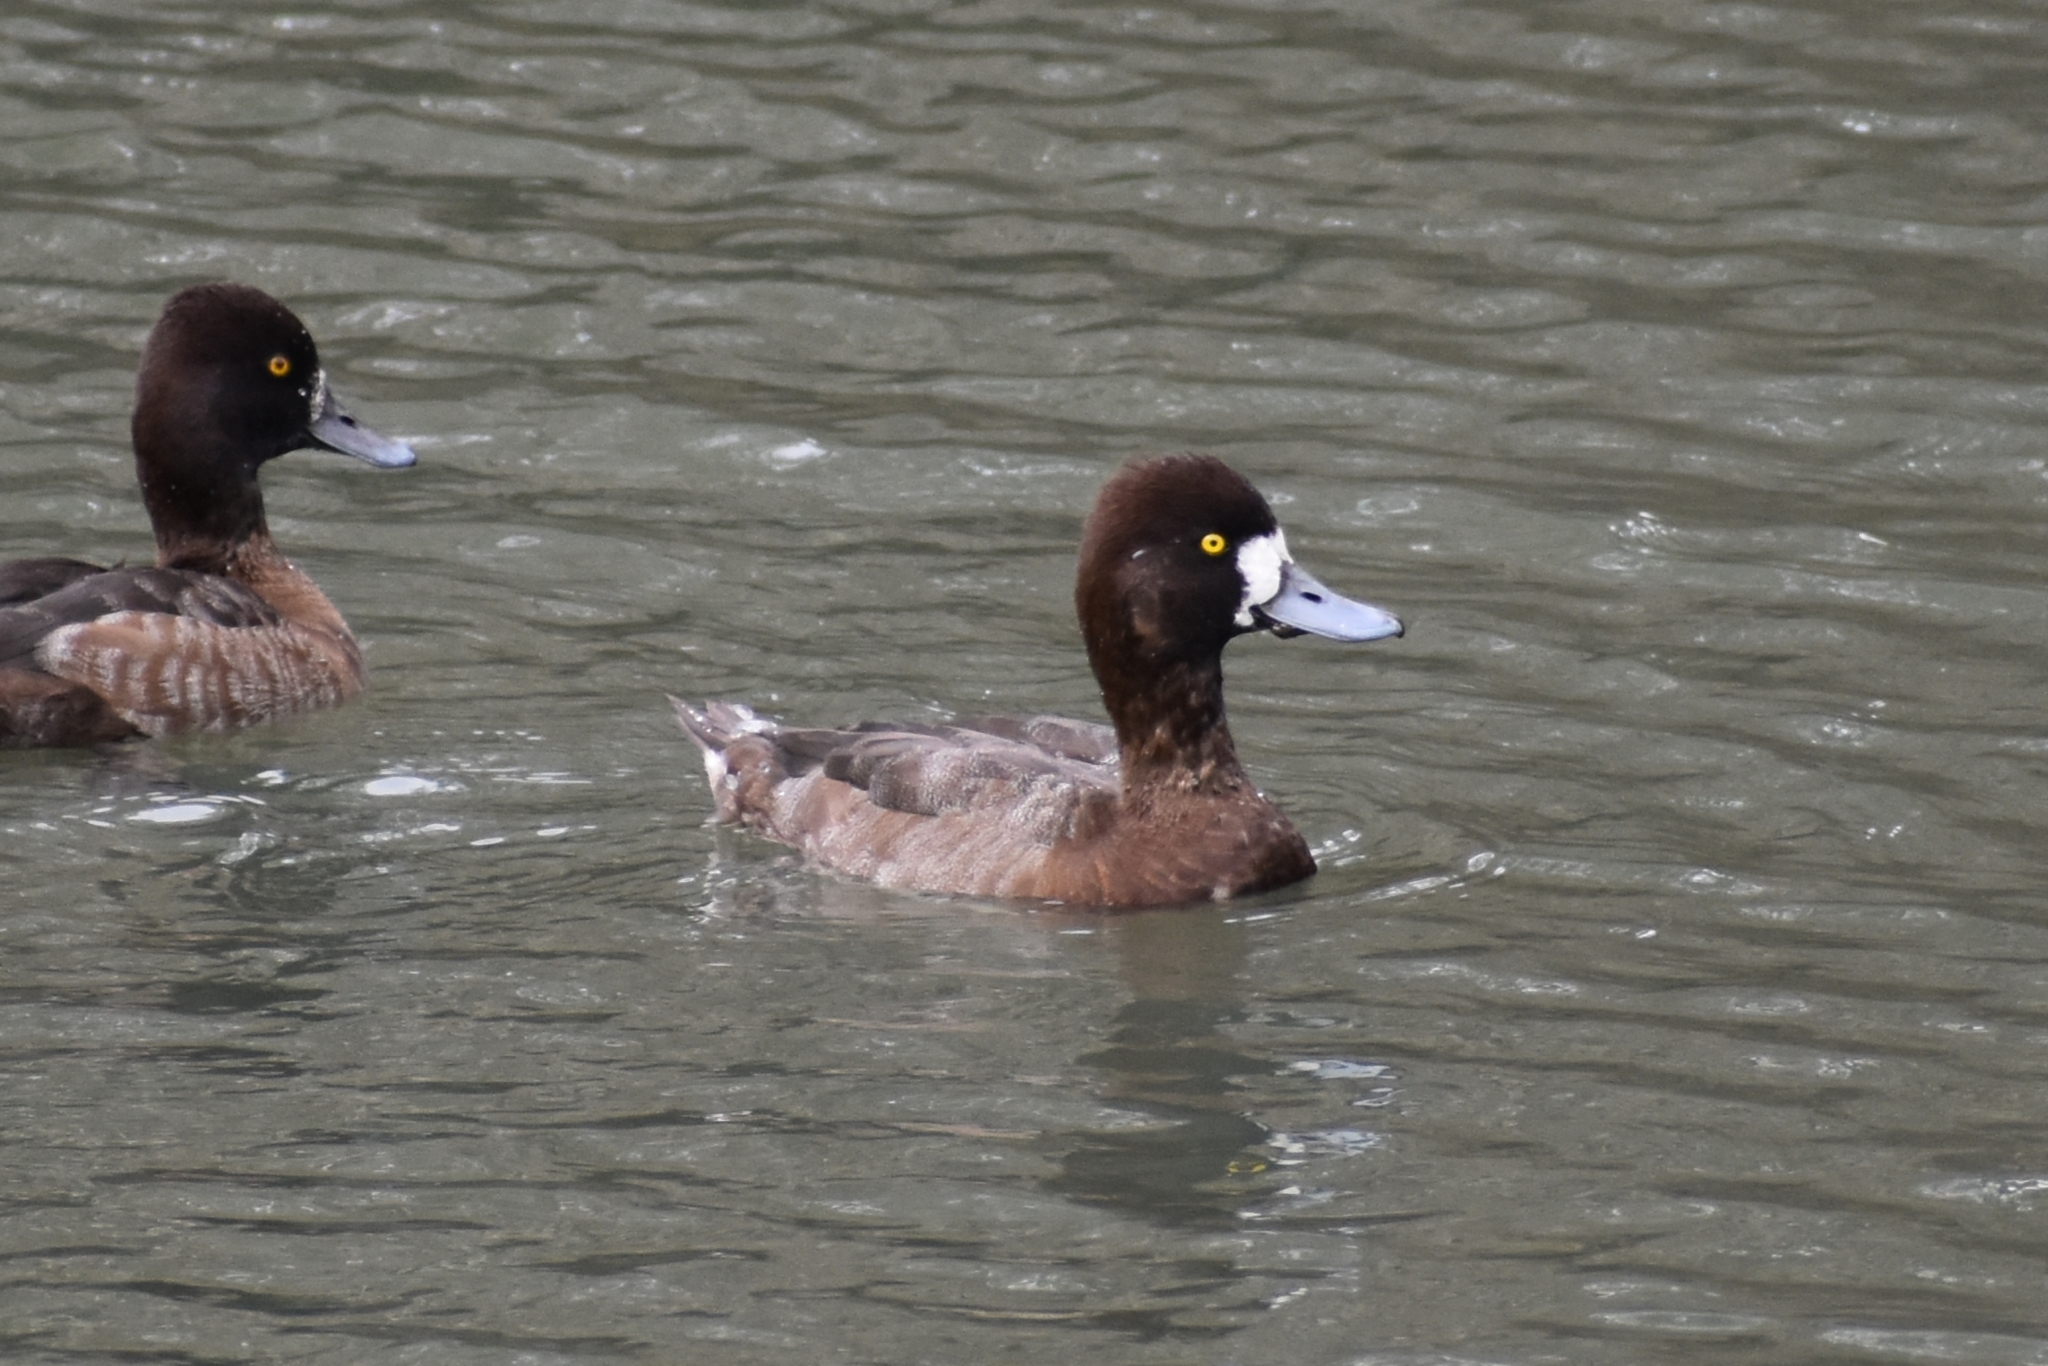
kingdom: Animalia
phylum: Chordata
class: Aves
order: Anseriformes
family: Anatidae
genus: Aythya
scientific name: Aythya affinis
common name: Lesser scaup
